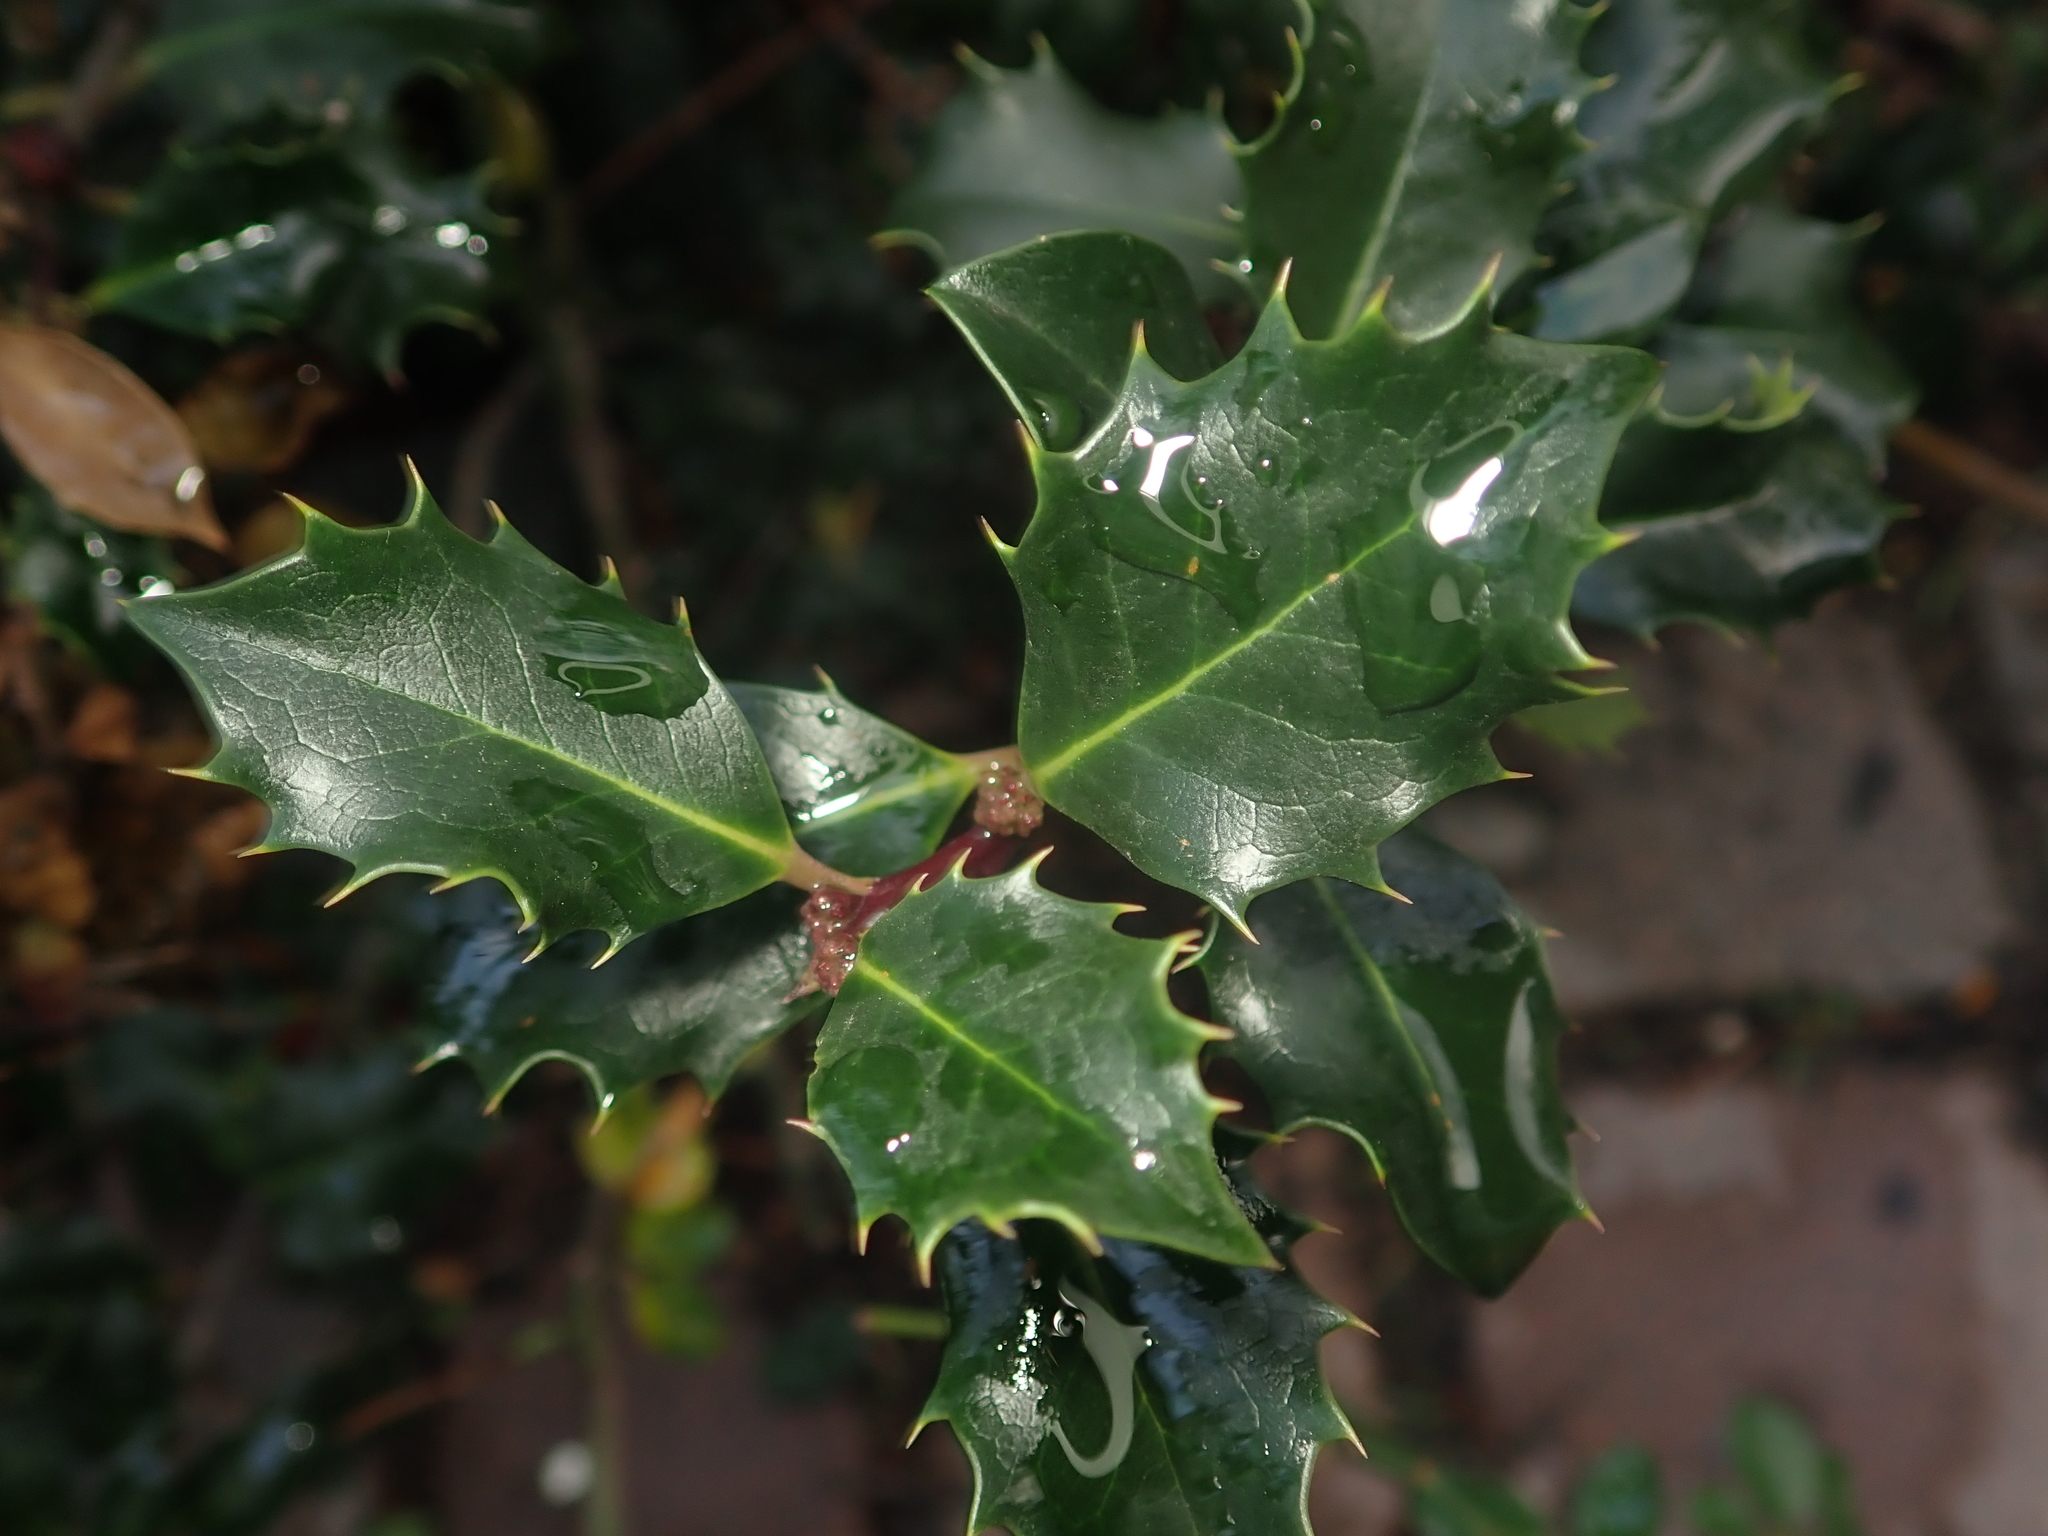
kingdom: Plantae
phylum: Tracheophyta
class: Magnoliopsida
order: Aquifoliales
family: Aquifoliaceae
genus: Ilex
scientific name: Ilex aquifolium
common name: English holly
